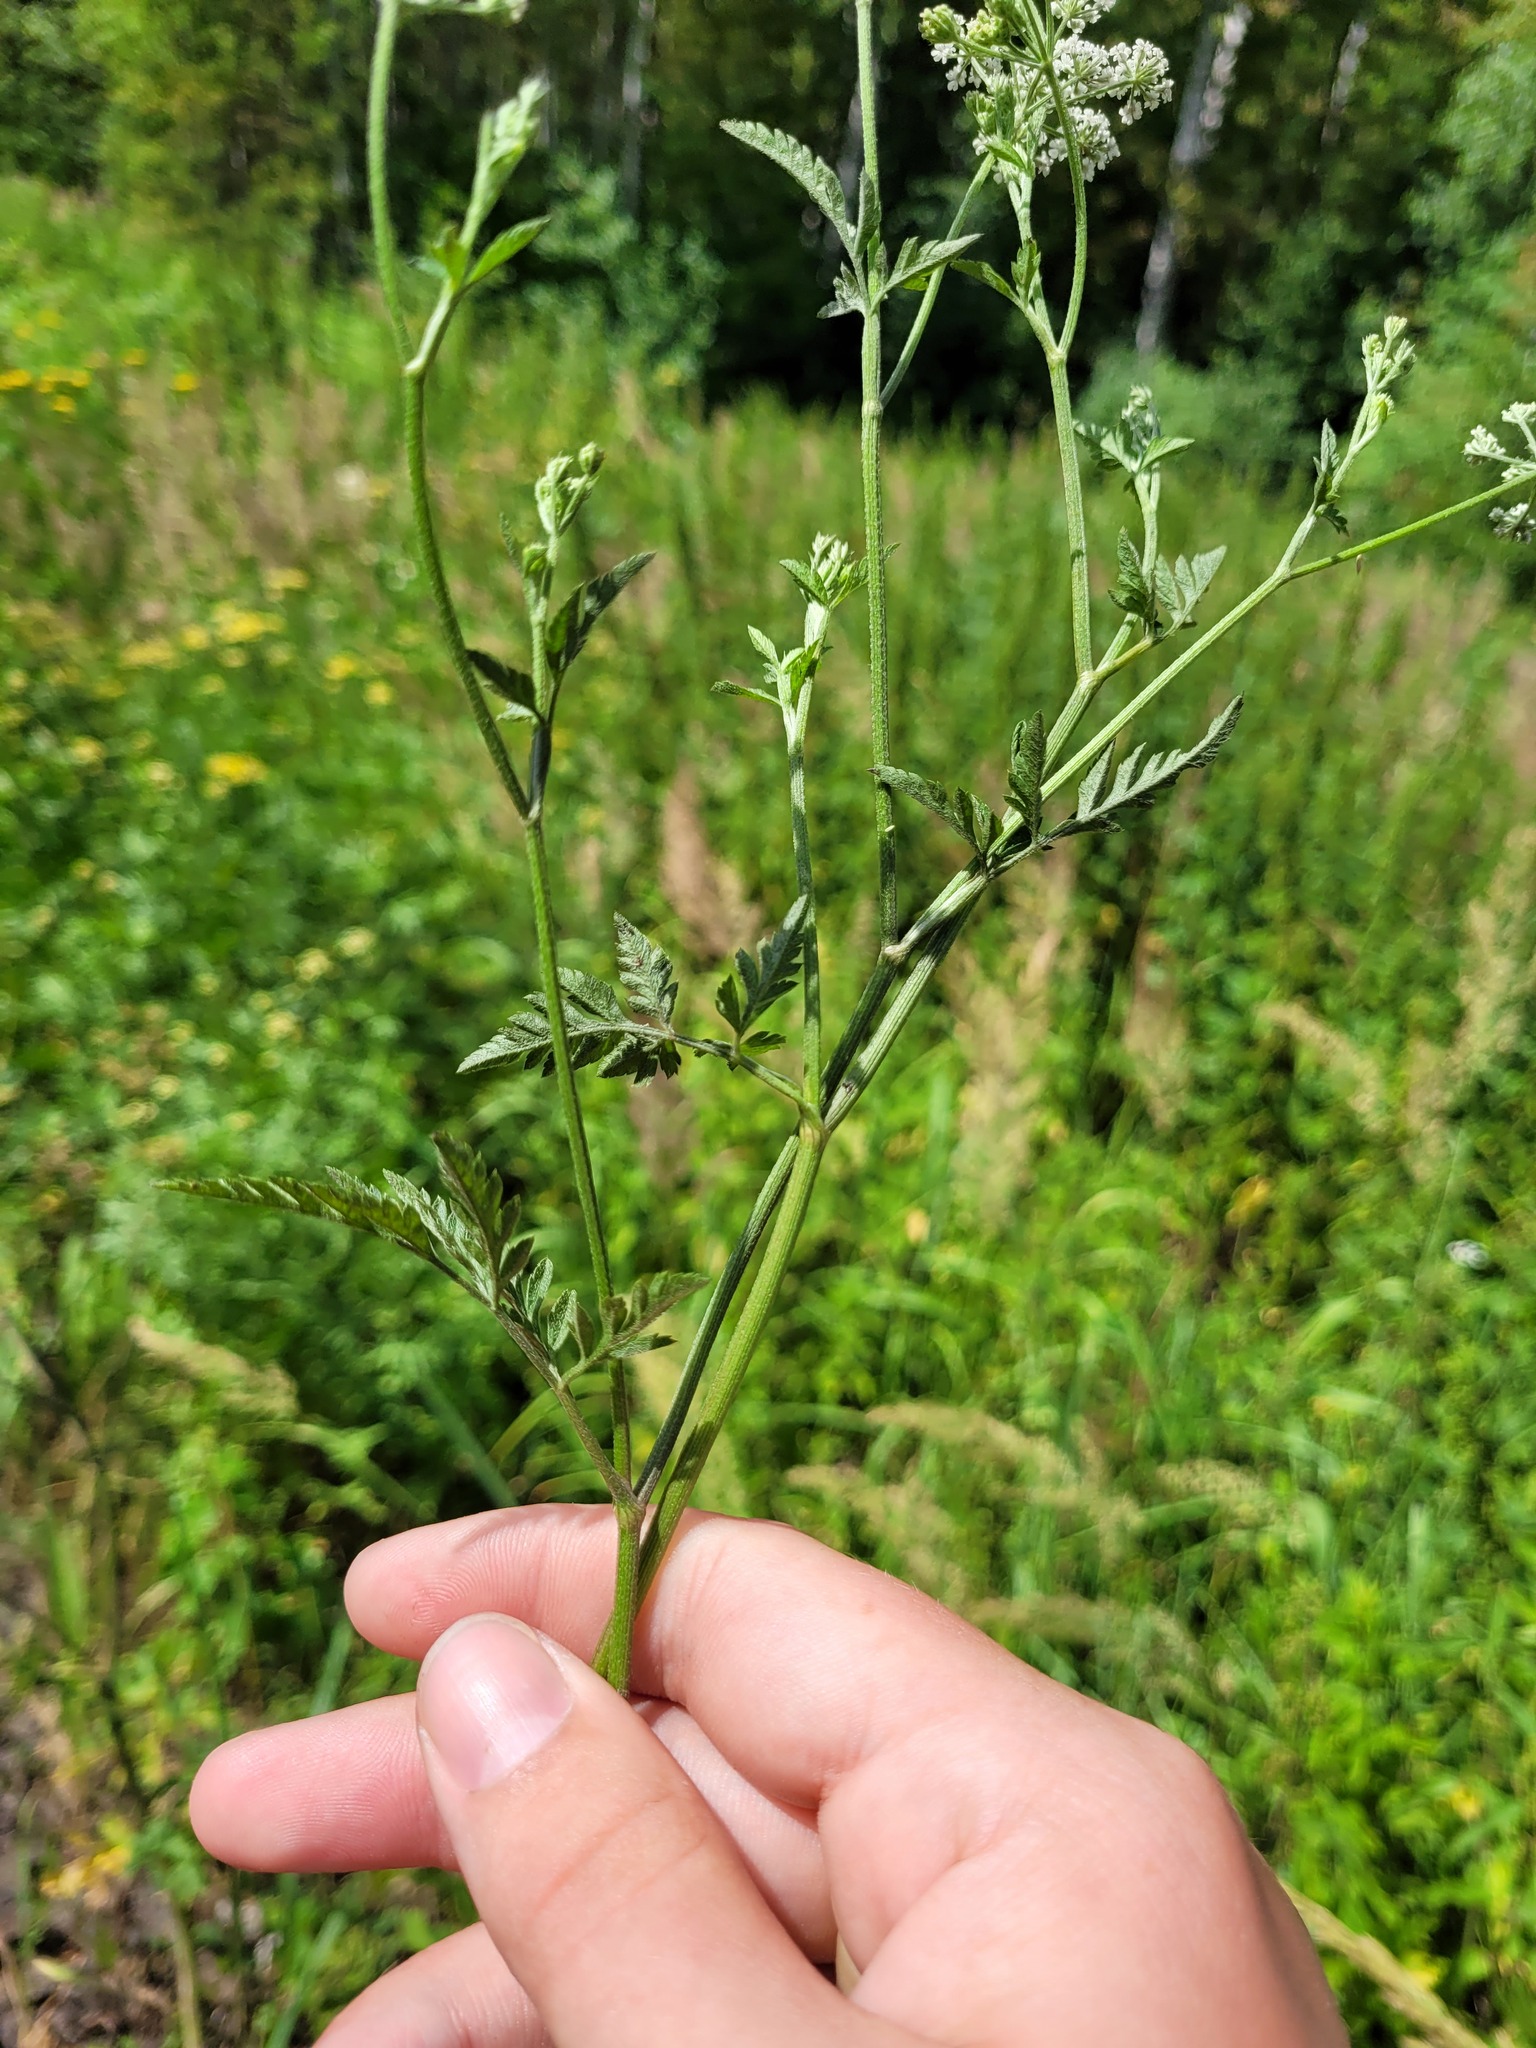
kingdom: Plantae
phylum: Tracheophyta
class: Magnoliopsida
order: Apiales
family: Apiaceae
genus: Torilis
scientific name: Torilis japonica
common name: Upright hedge-parsley
